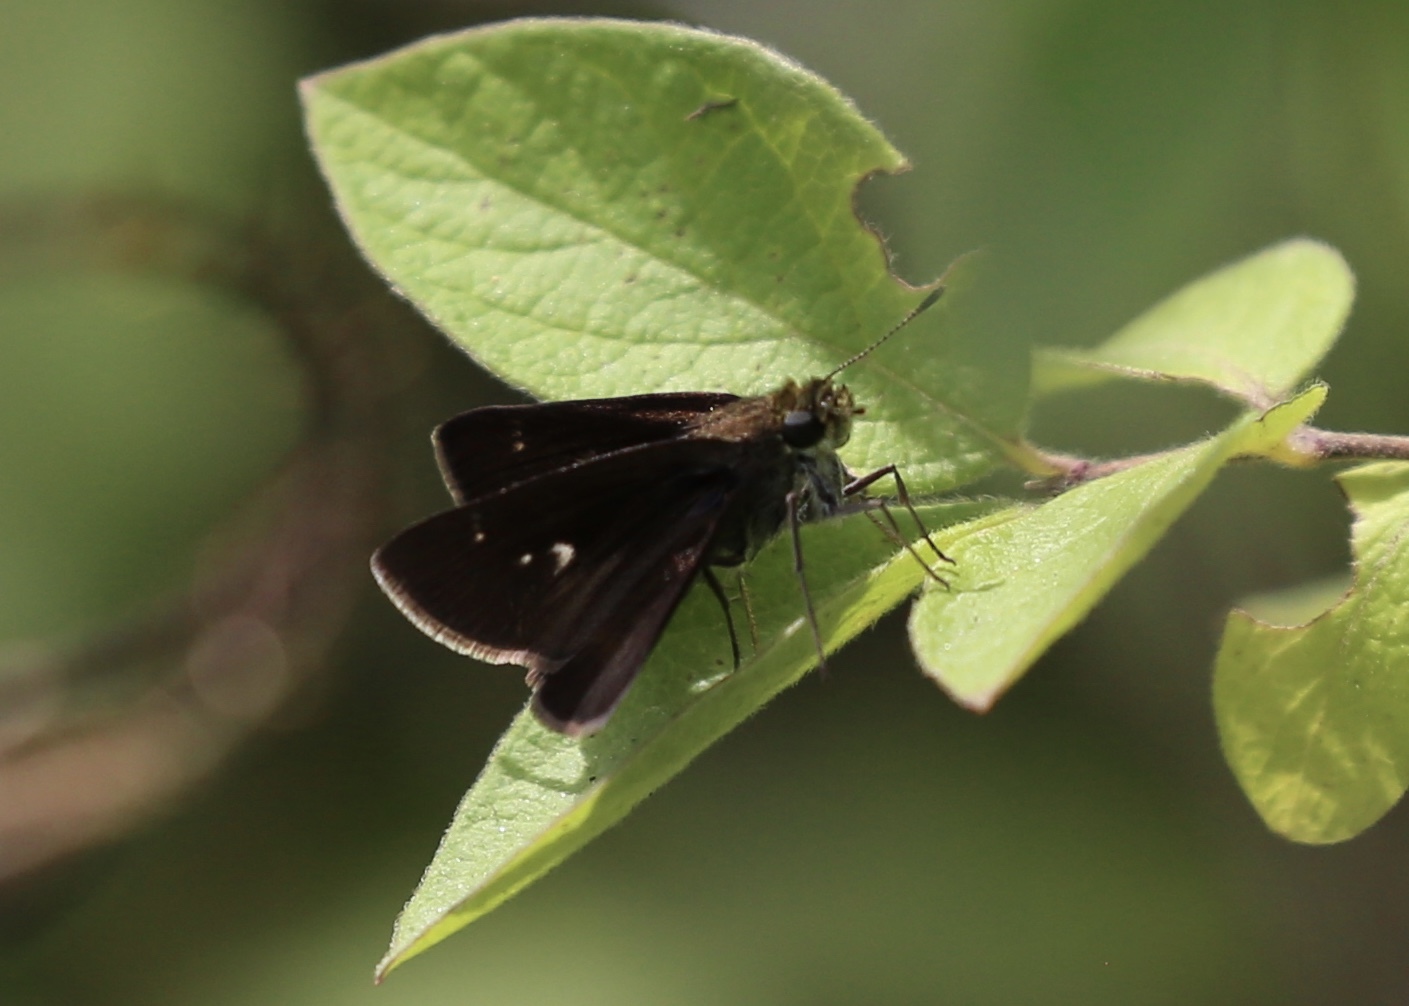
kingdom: Animalia
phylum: Arthropoda
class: Insecta
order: Lepidoptera
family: Hesperiidae
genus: Euphyes
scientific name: Euphyes vestris
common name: Dun skipper
